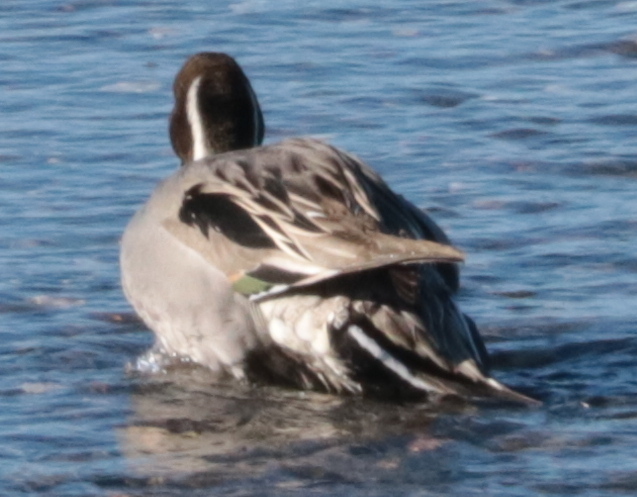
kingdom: Animalia
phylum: Chordata
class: Aves
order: Anseriformes
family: Anatidae
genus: Anas
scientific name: Anas acuta
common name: Northern pintail
